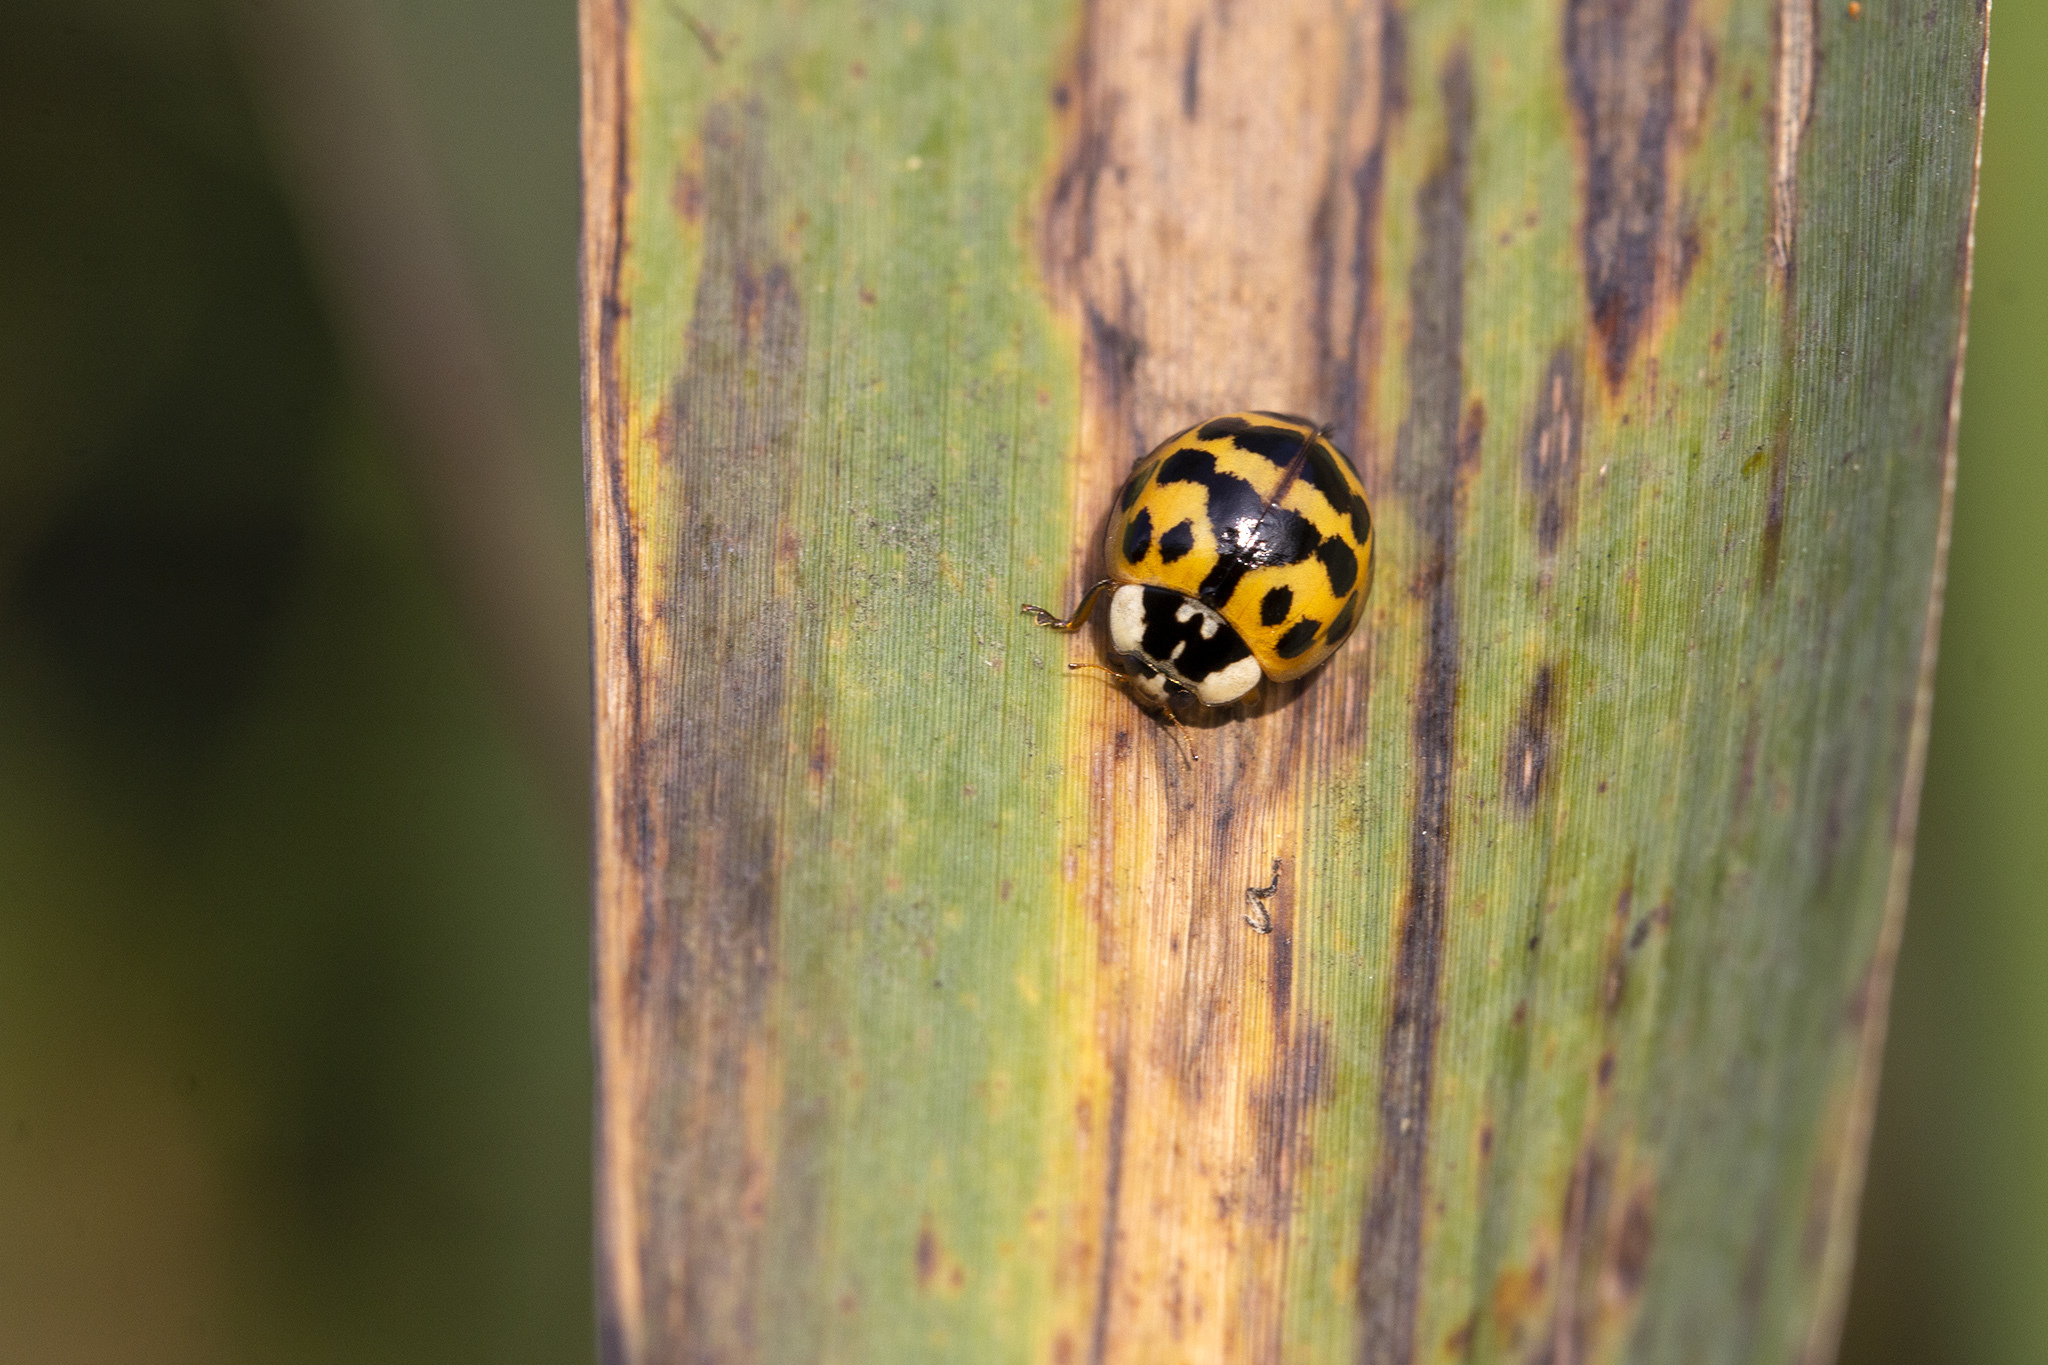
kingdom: Animalia
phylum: Arthropoda
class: Insecta
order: Coleoptera
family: Coccinellidae
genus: Harmonia
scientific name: Harmonia axyridis
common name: Harlequin ladybird
